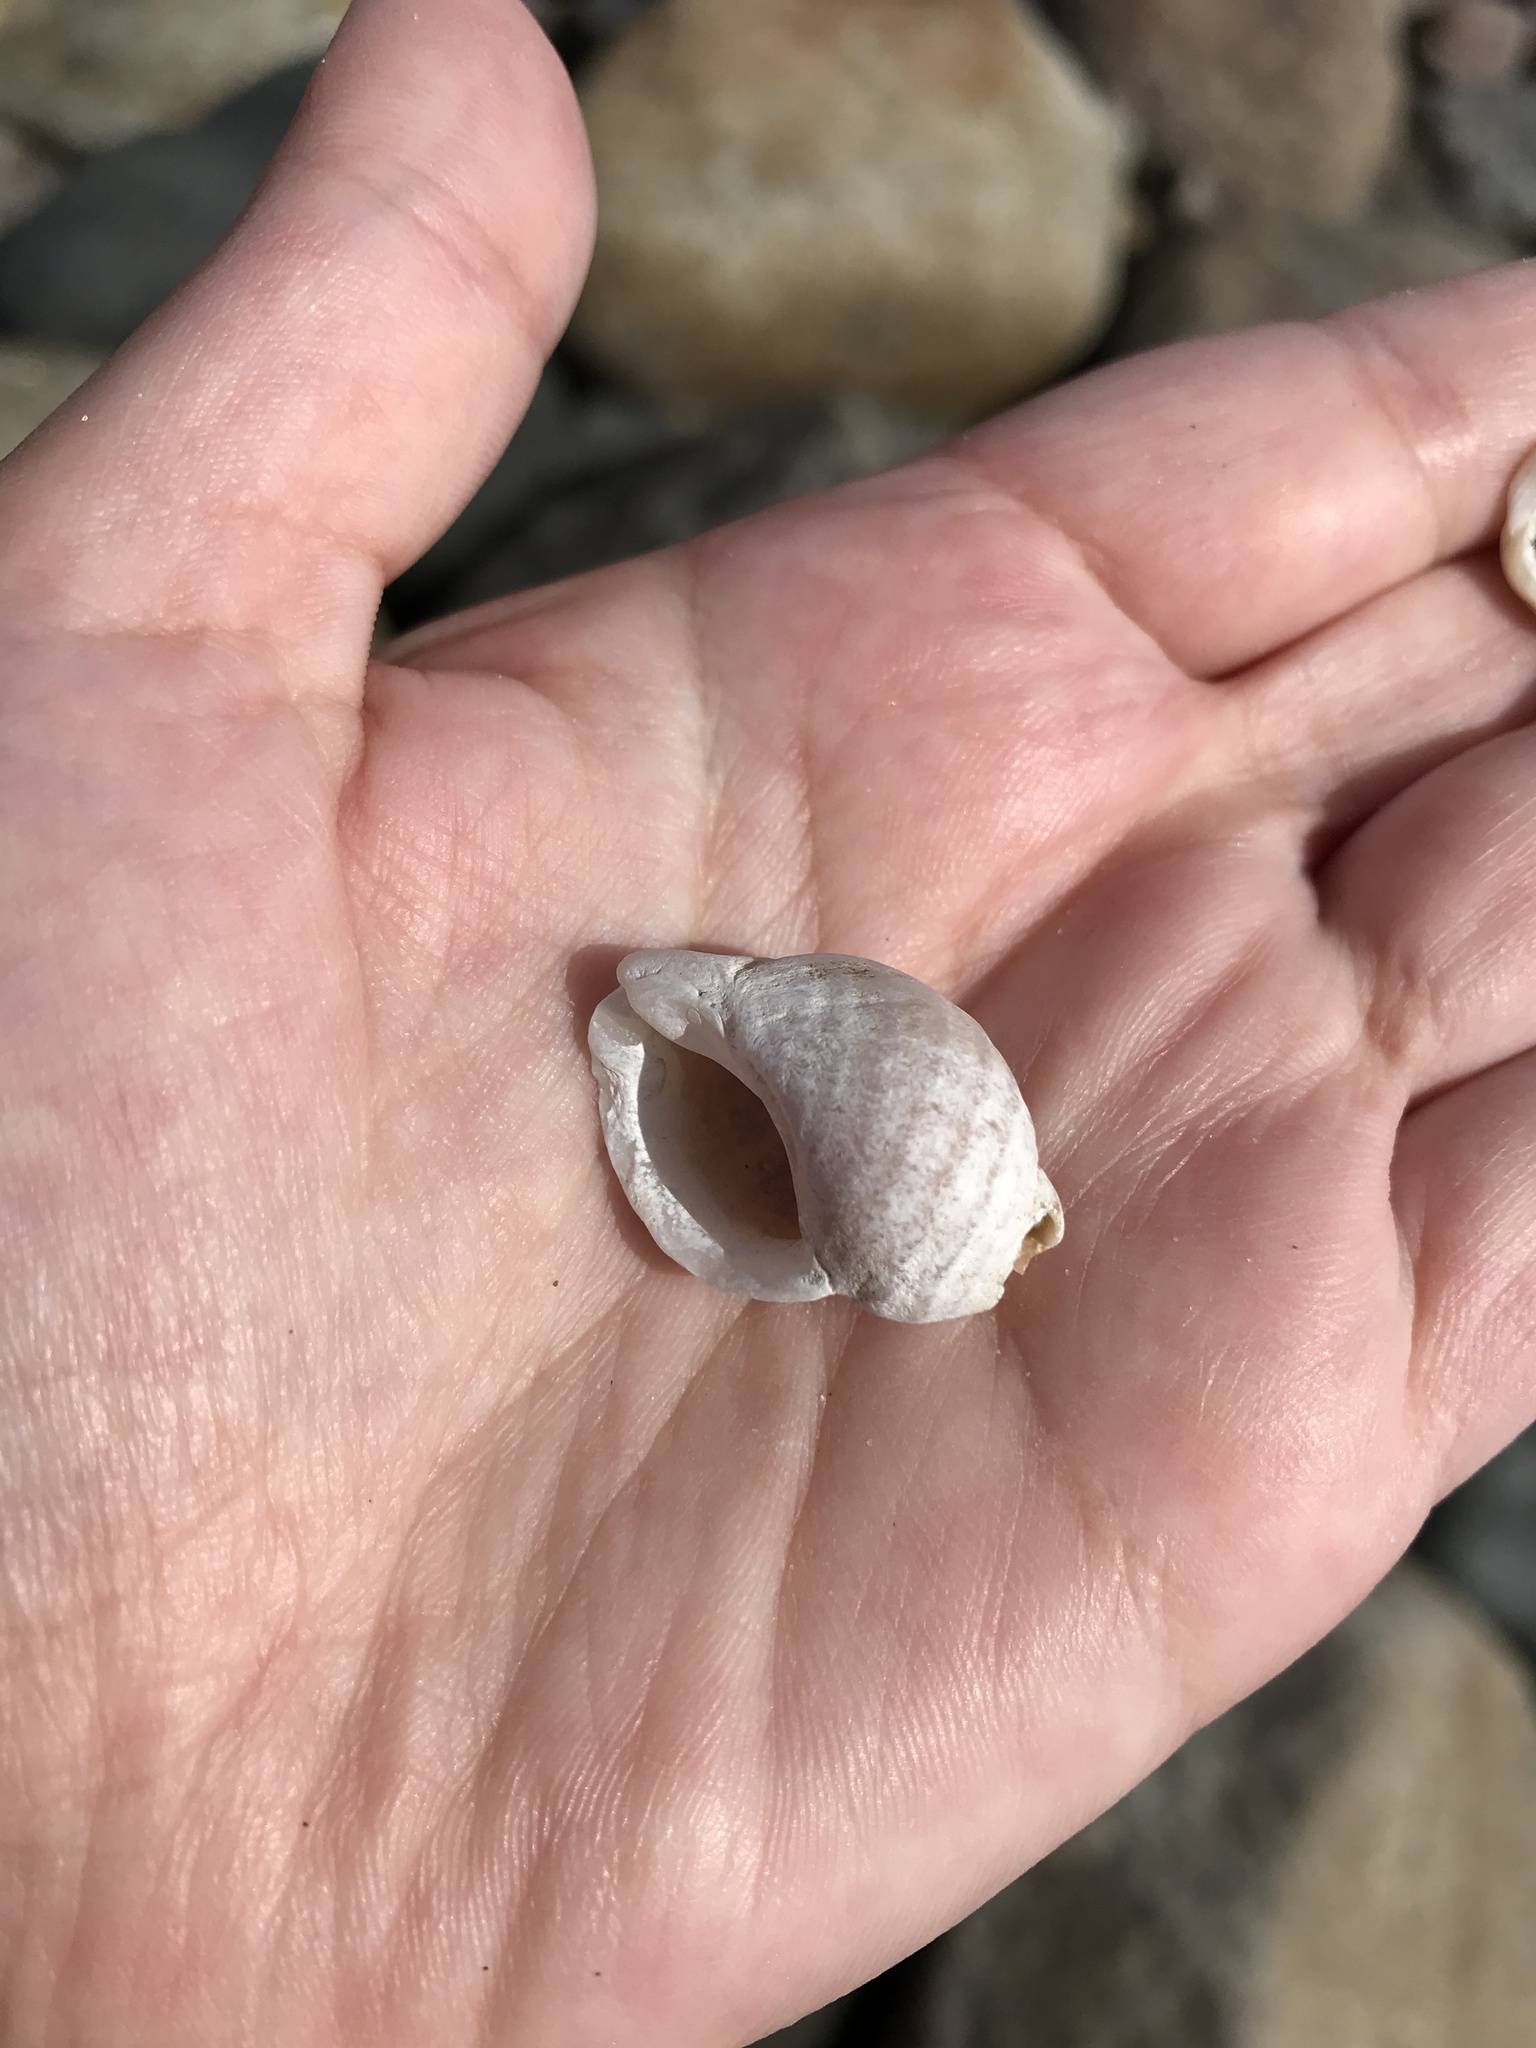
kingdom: Animalia
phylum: Mollusca
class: Gastropoda
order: Neogastropoda
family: Muricidae
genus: Nucella
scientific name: Nucella lapillus
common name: Dog whelk
